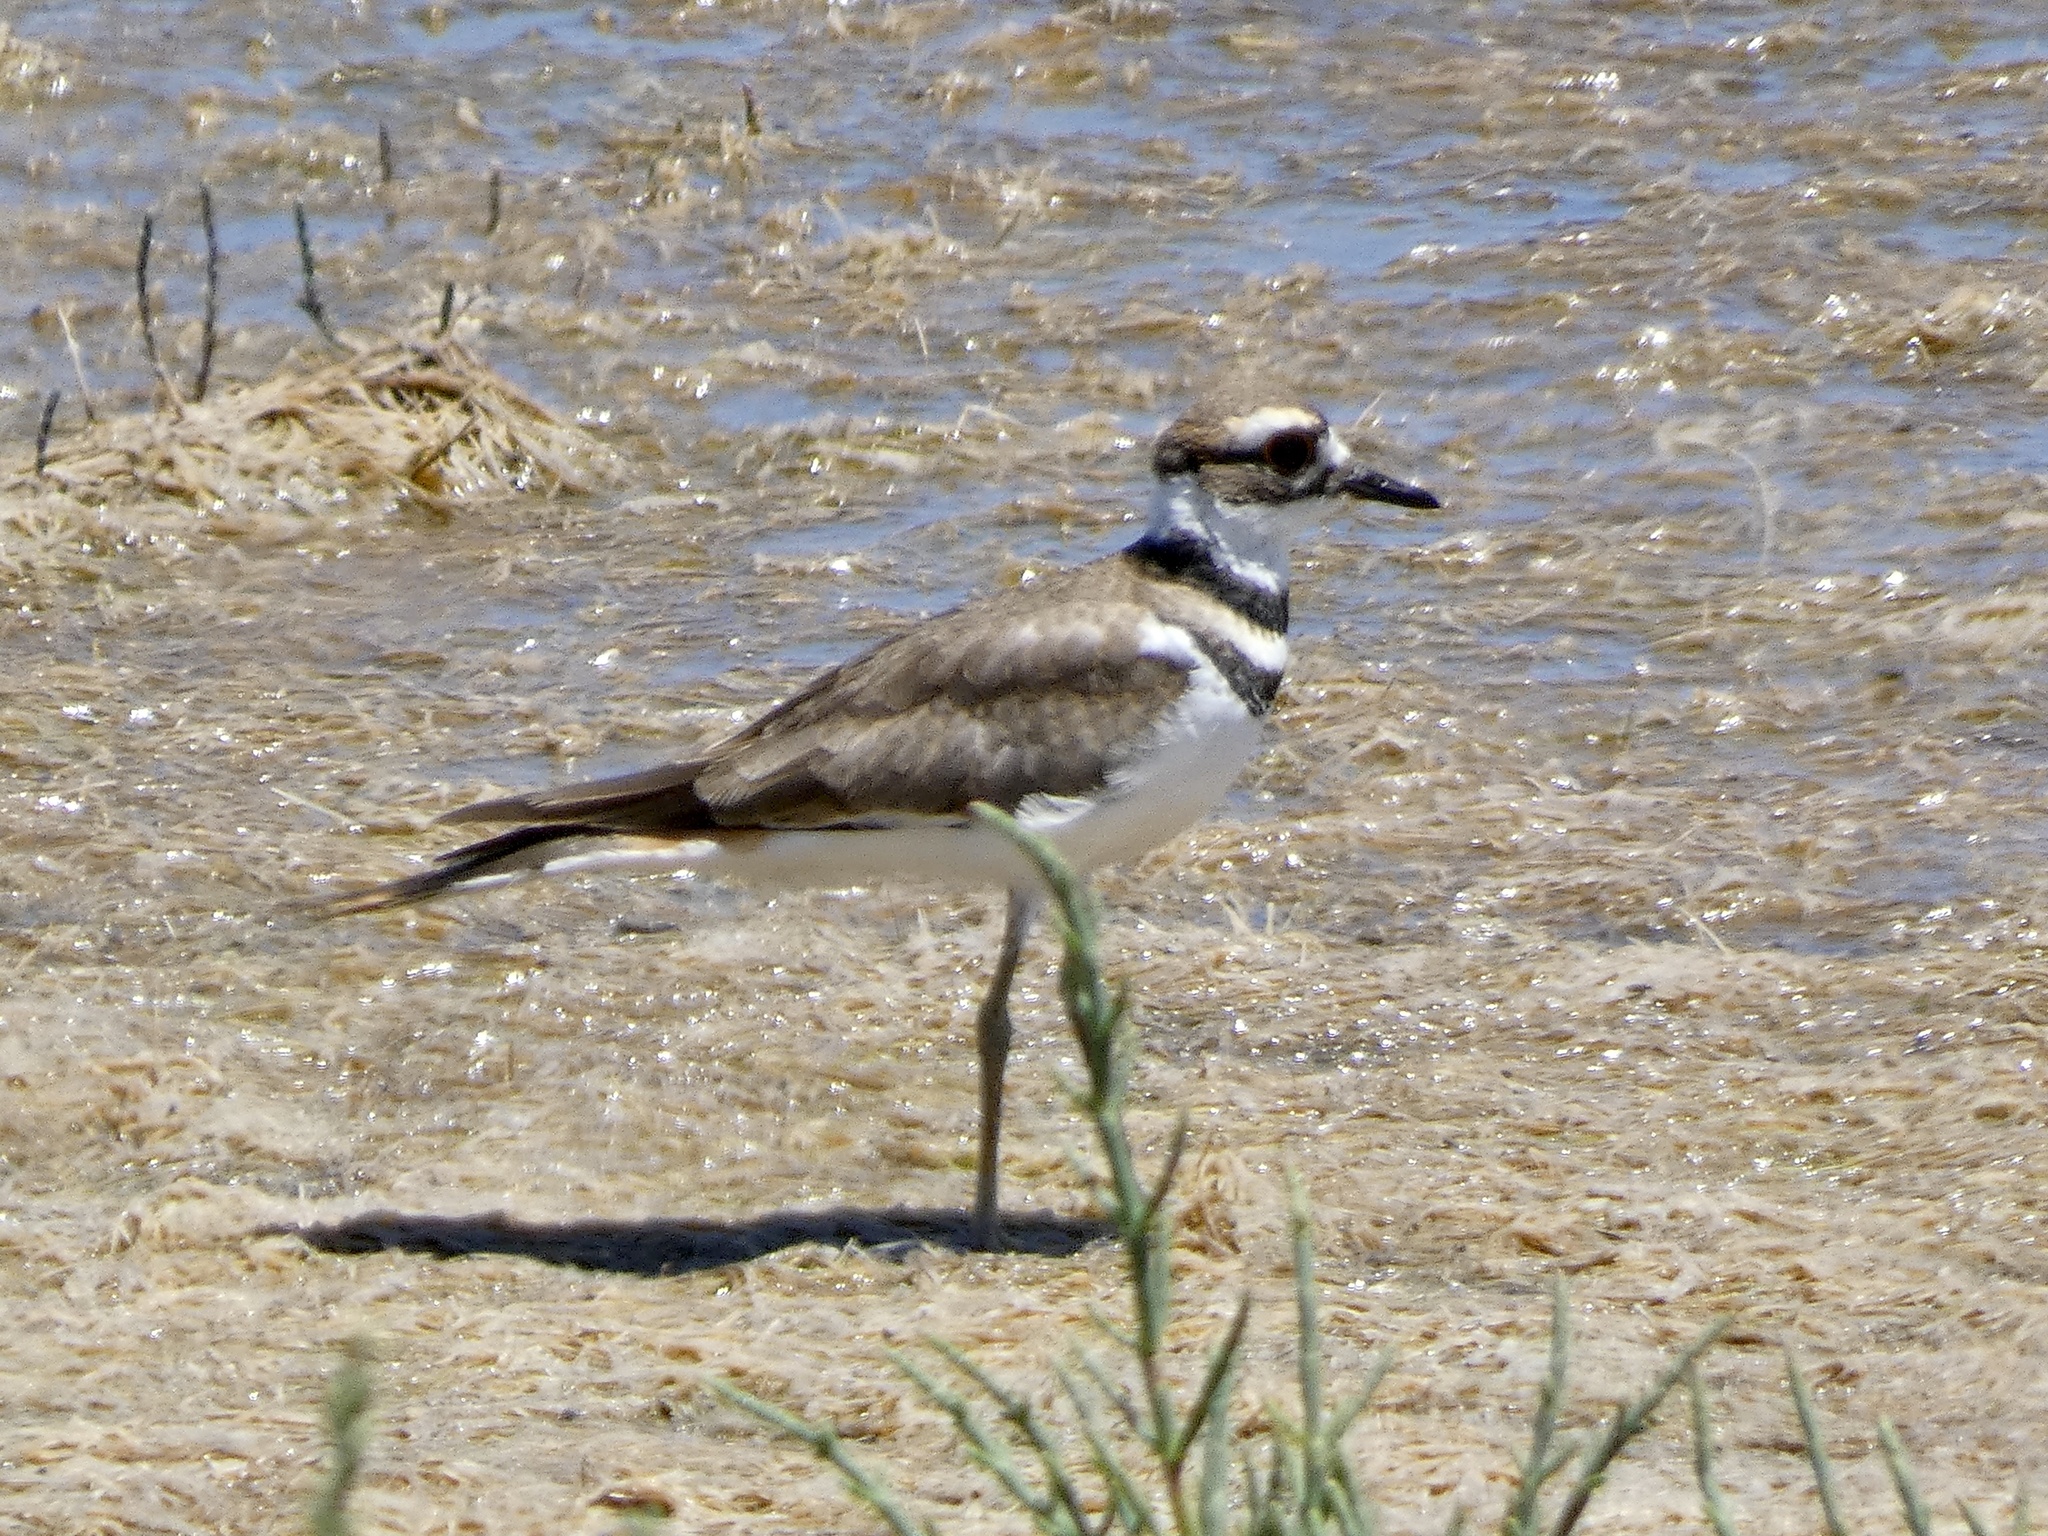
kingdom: Animalia
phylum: Chordata
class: Aves
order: Charadriiformes
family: Charadriidae
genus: Charadrius
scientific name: Charadrius vociferus
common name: Killdeer
